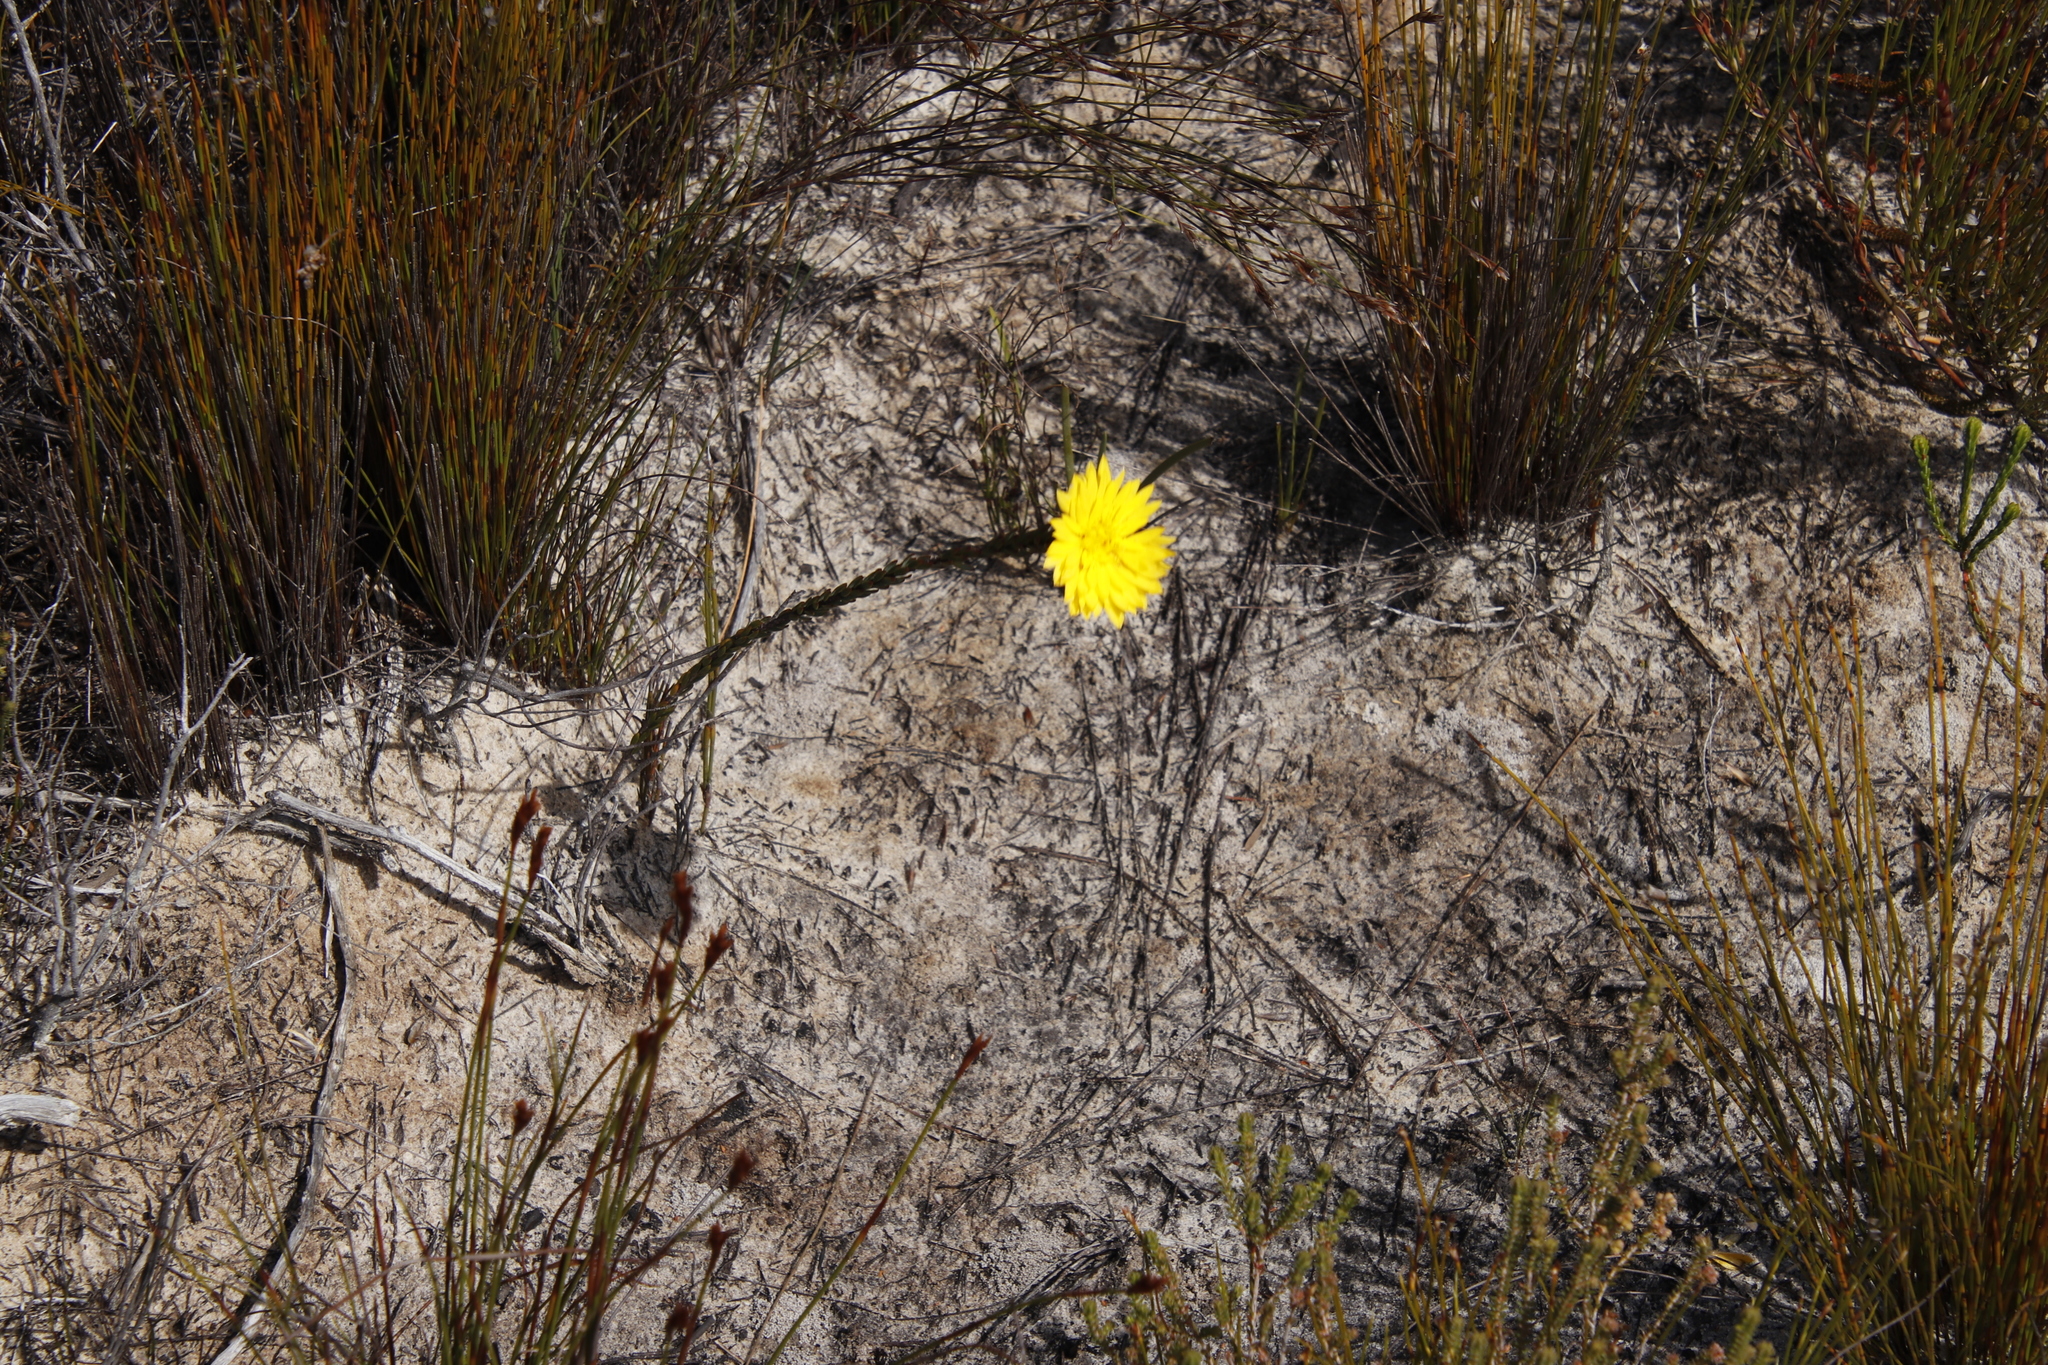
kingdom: Plantae
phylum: Tracheophyta
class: Magnoliopsida
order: Malvales
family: Thymelaeaceae
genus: Lachnaea
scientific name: Lachnaea aurea
